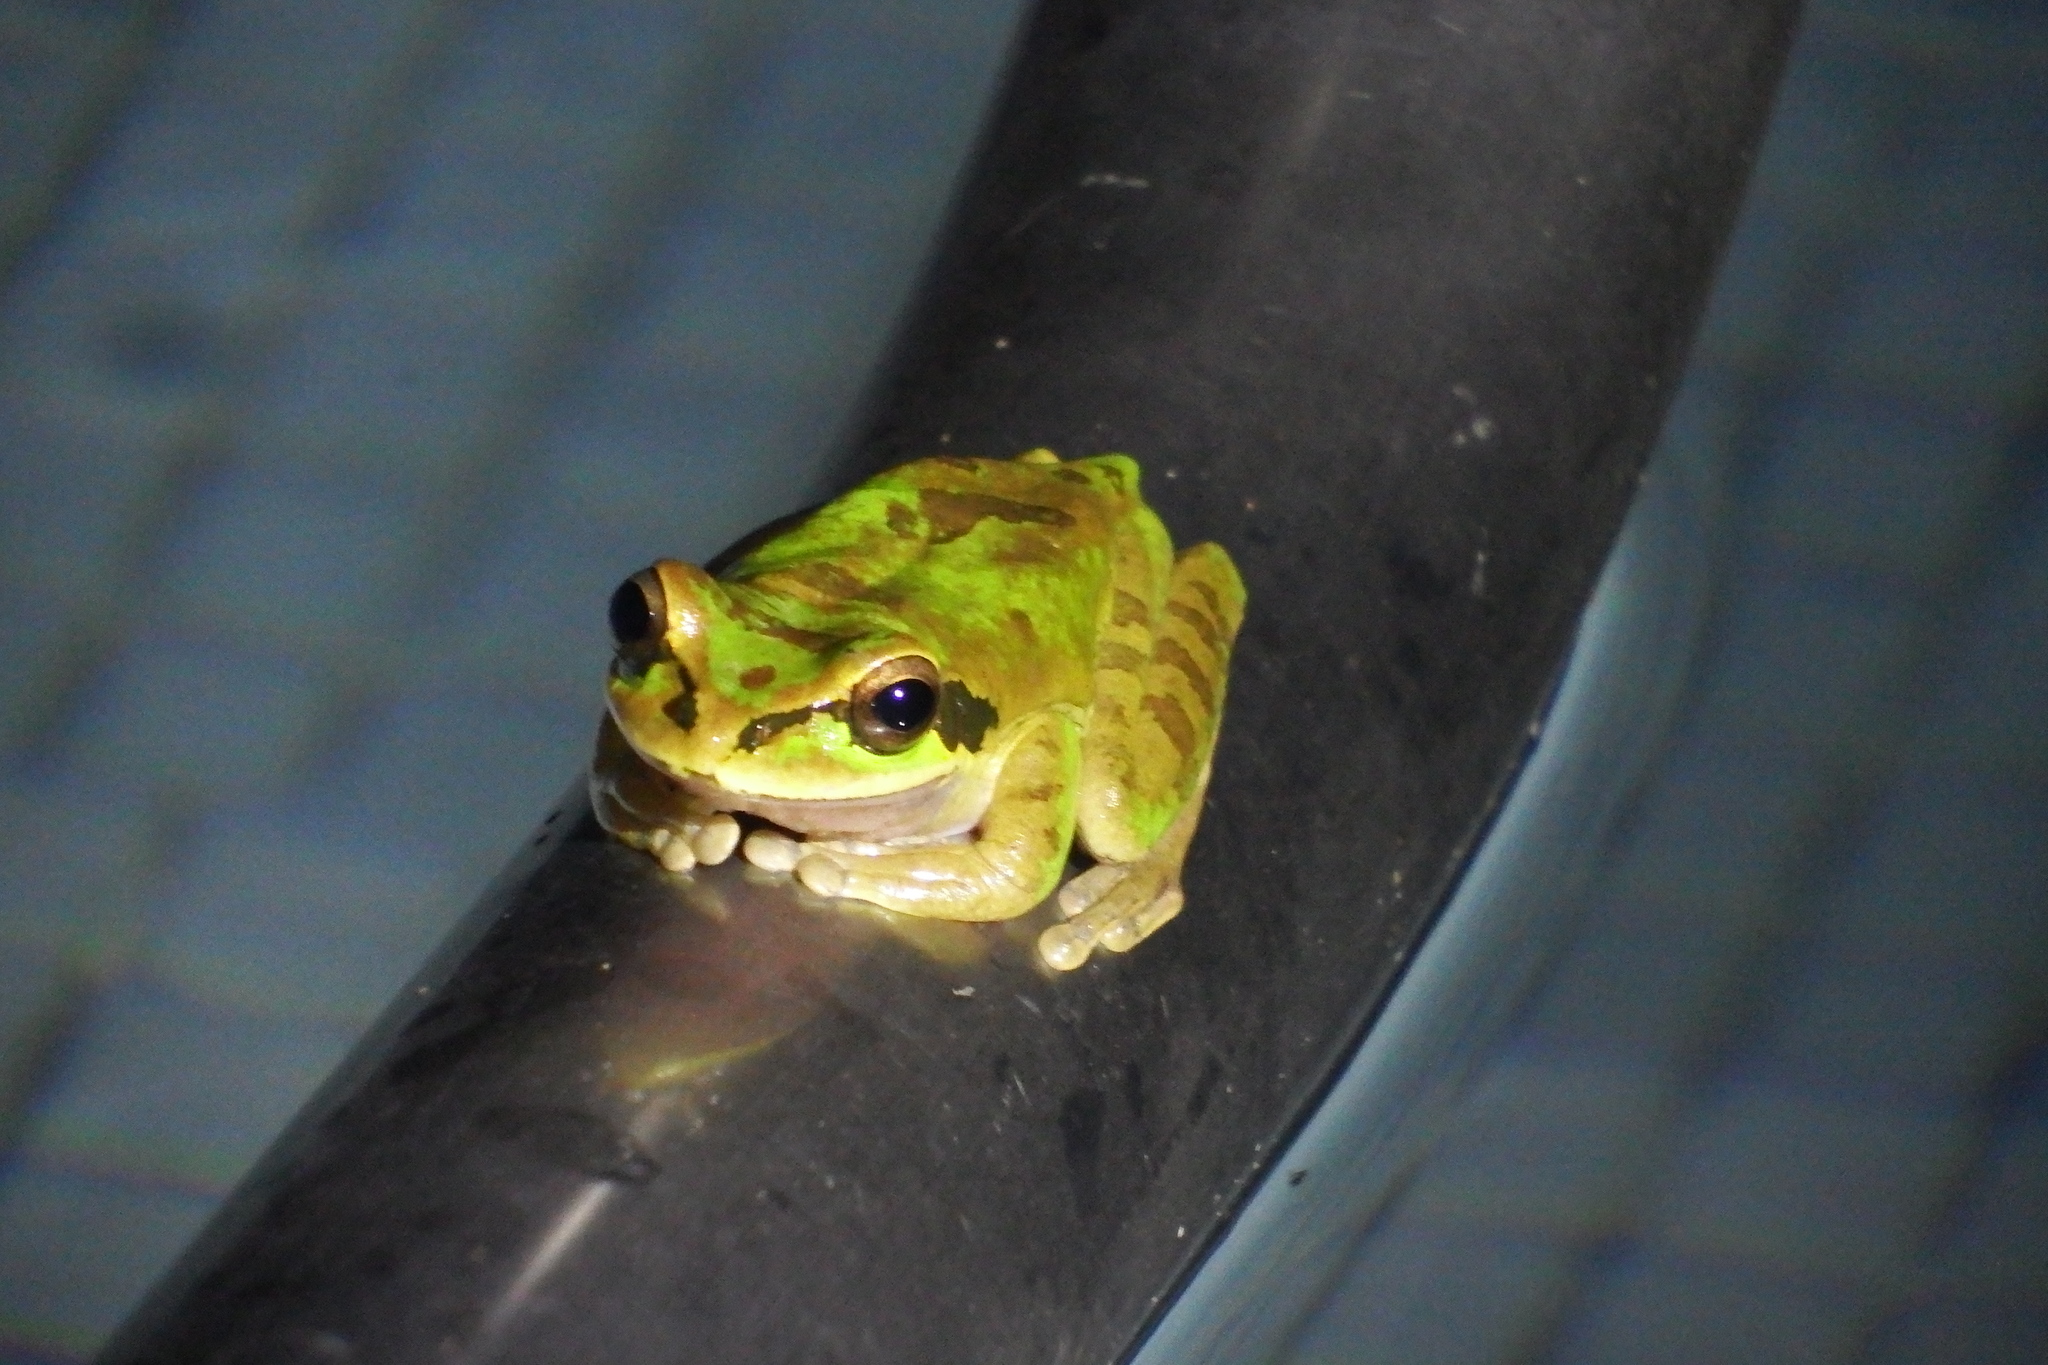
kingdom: Animalia
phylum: Chordata
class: Amphibia
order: Anura
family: Hylidae
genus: Smilisca
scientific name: Smilisca phaeota
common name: Central american smilisca
